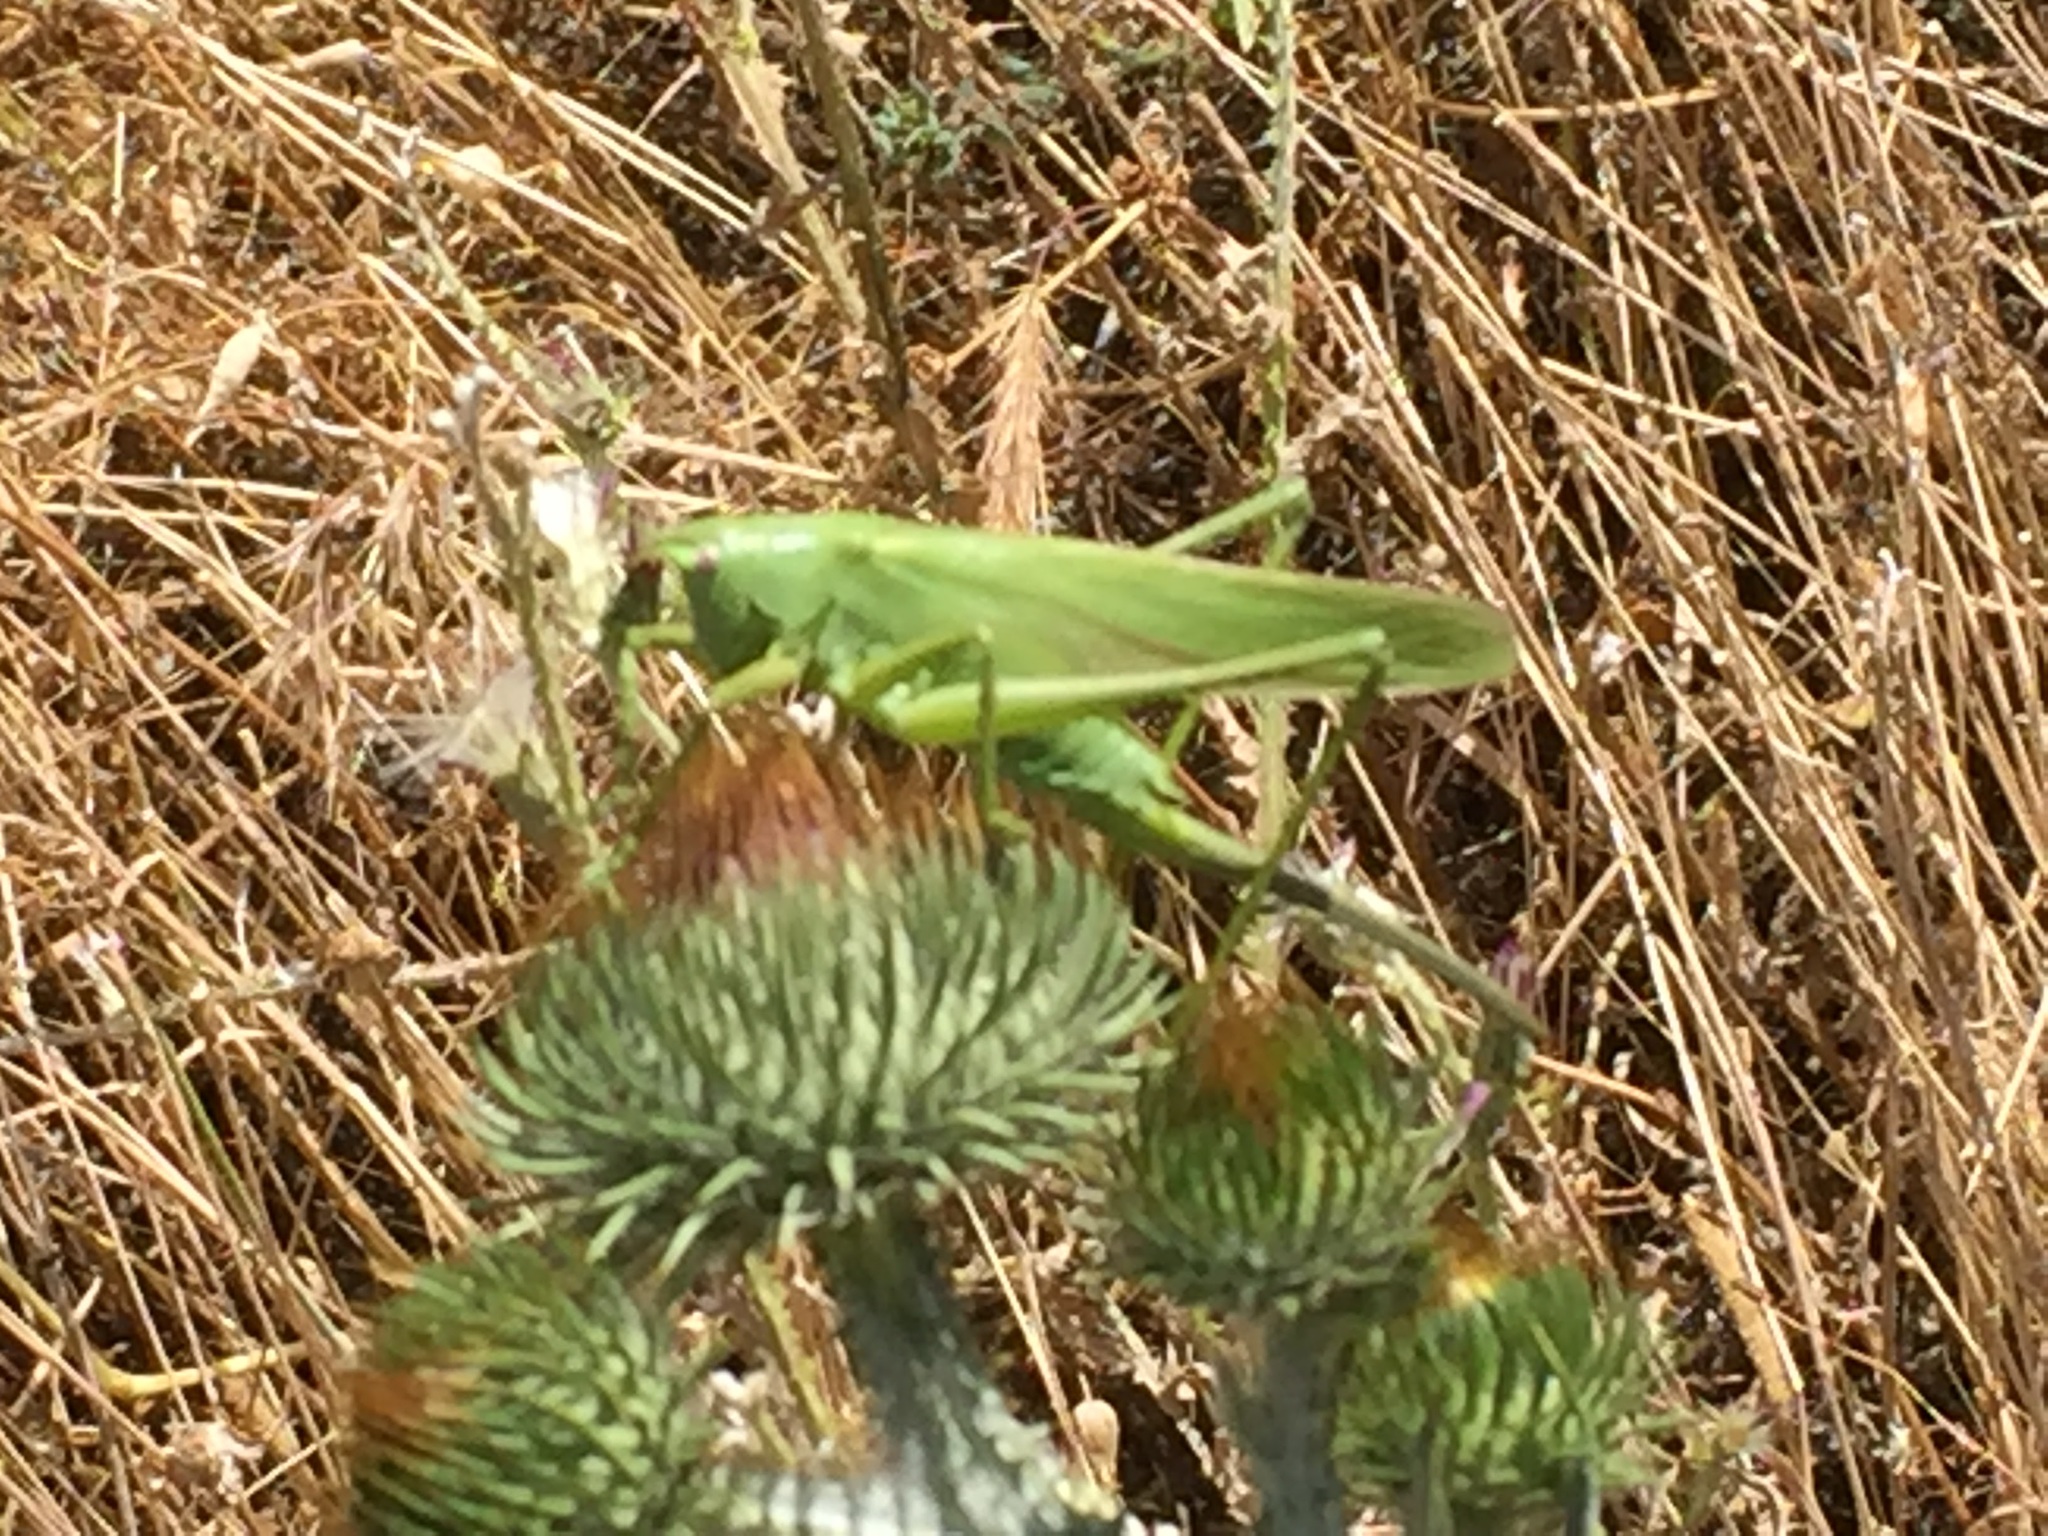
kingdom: Animalia
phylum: Arthropoda
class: Insecta
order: Orthoptera
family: Tettigoniidae
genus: Tettigonia
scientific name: Tettigonia caudata
